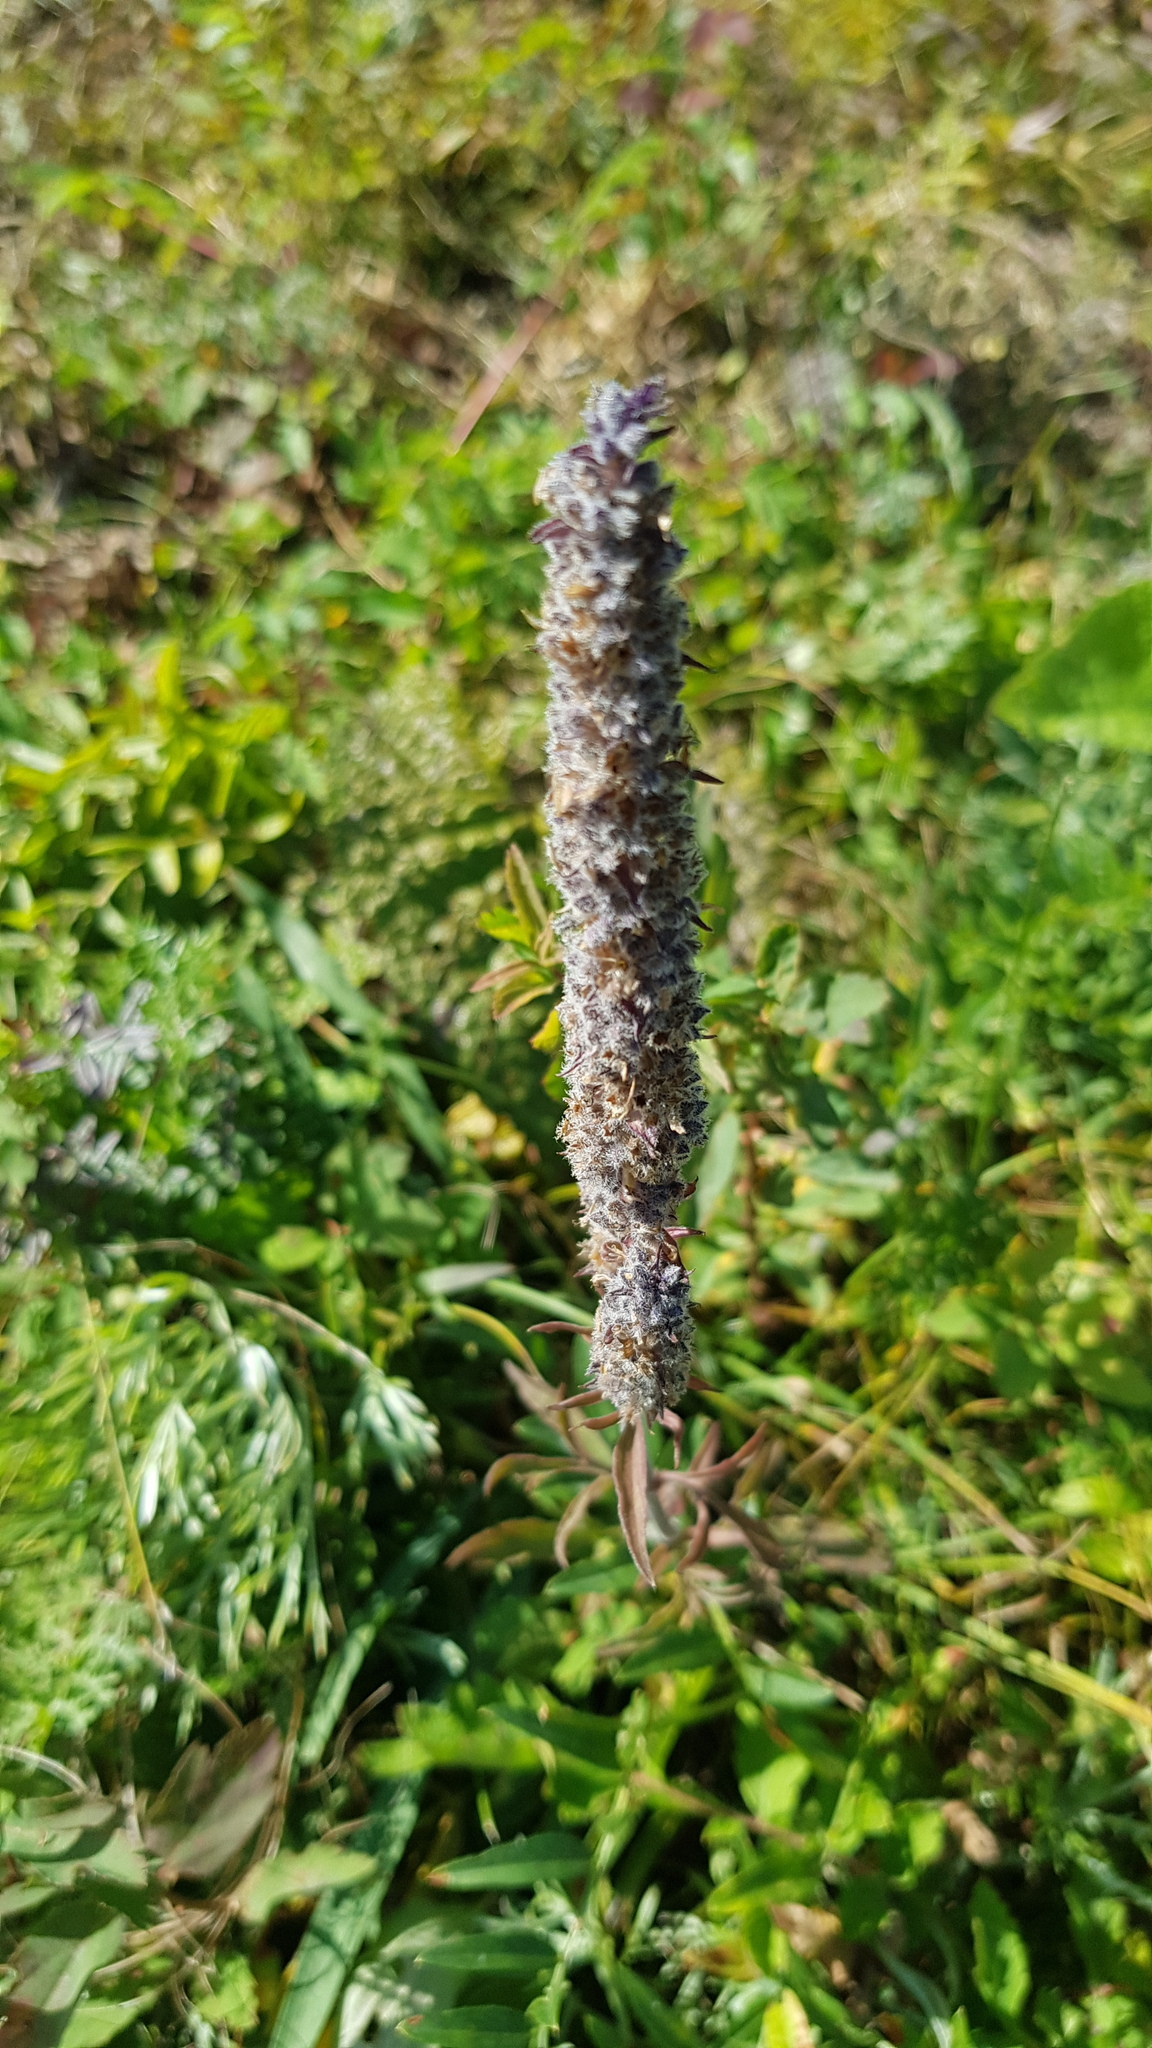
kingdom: Plantae
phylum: Tracheophyta
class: Magnoliopsida
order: Lamiales
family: Lamiaceae
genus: Nepeta
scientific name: Nepeta multifida
